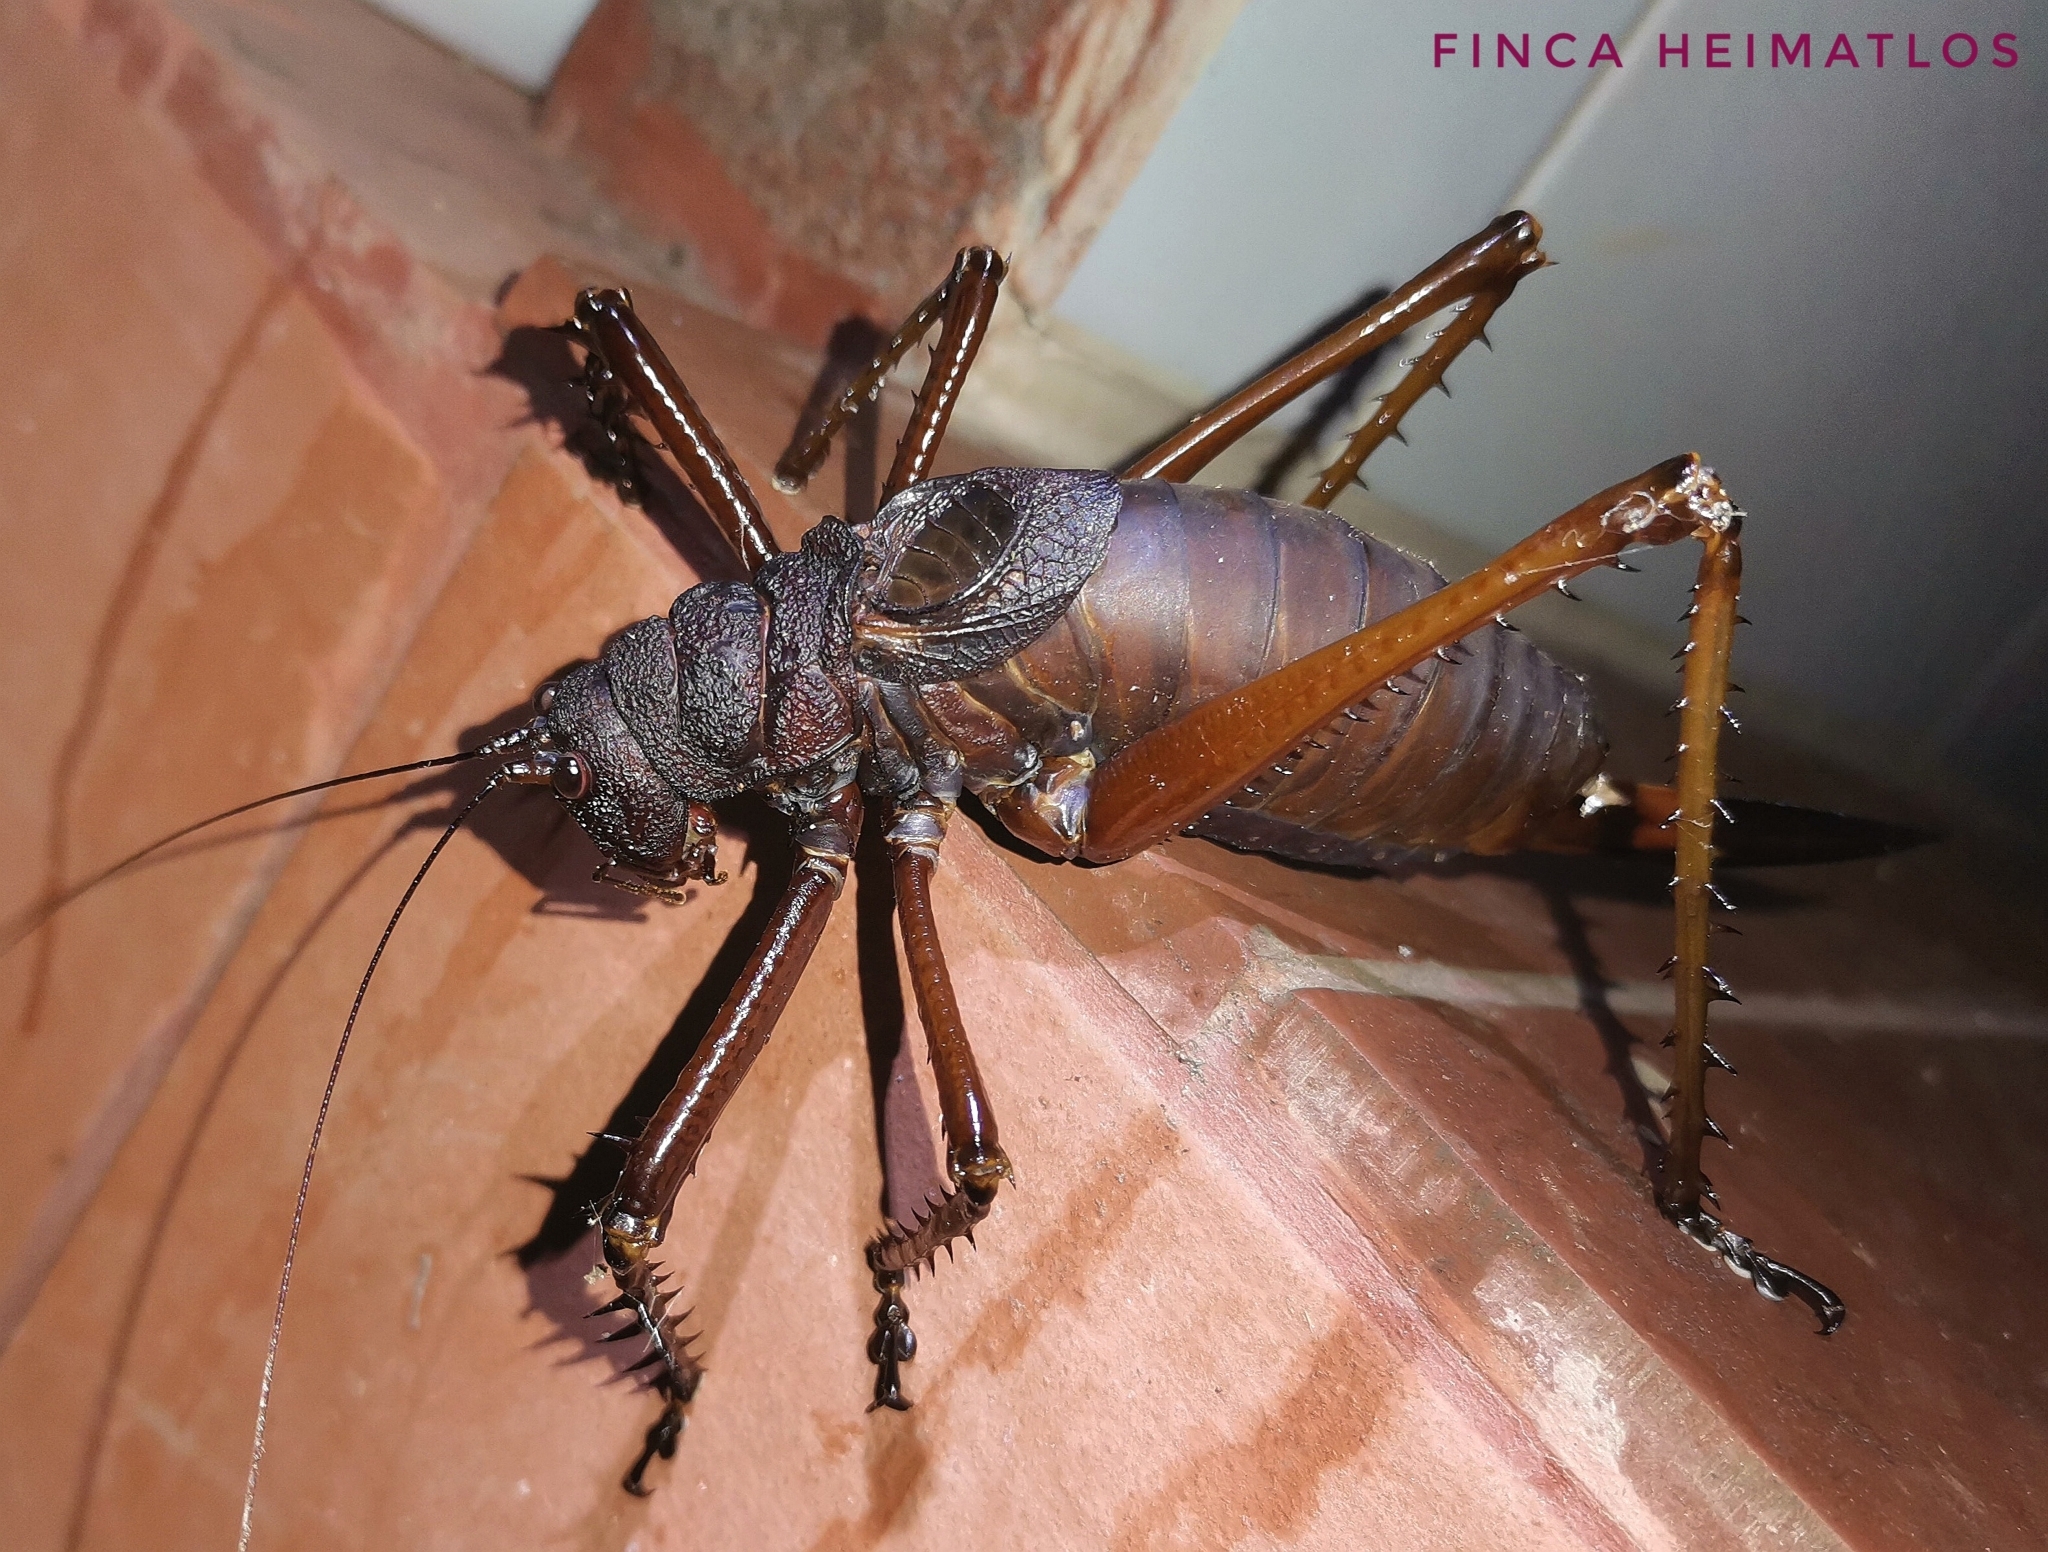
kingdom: Animalia
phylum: Arthropoda
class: Insecta
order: Orthoptera
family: Tettigoniidae
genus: Panoploscelis
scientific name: Panoploscelis specularis
